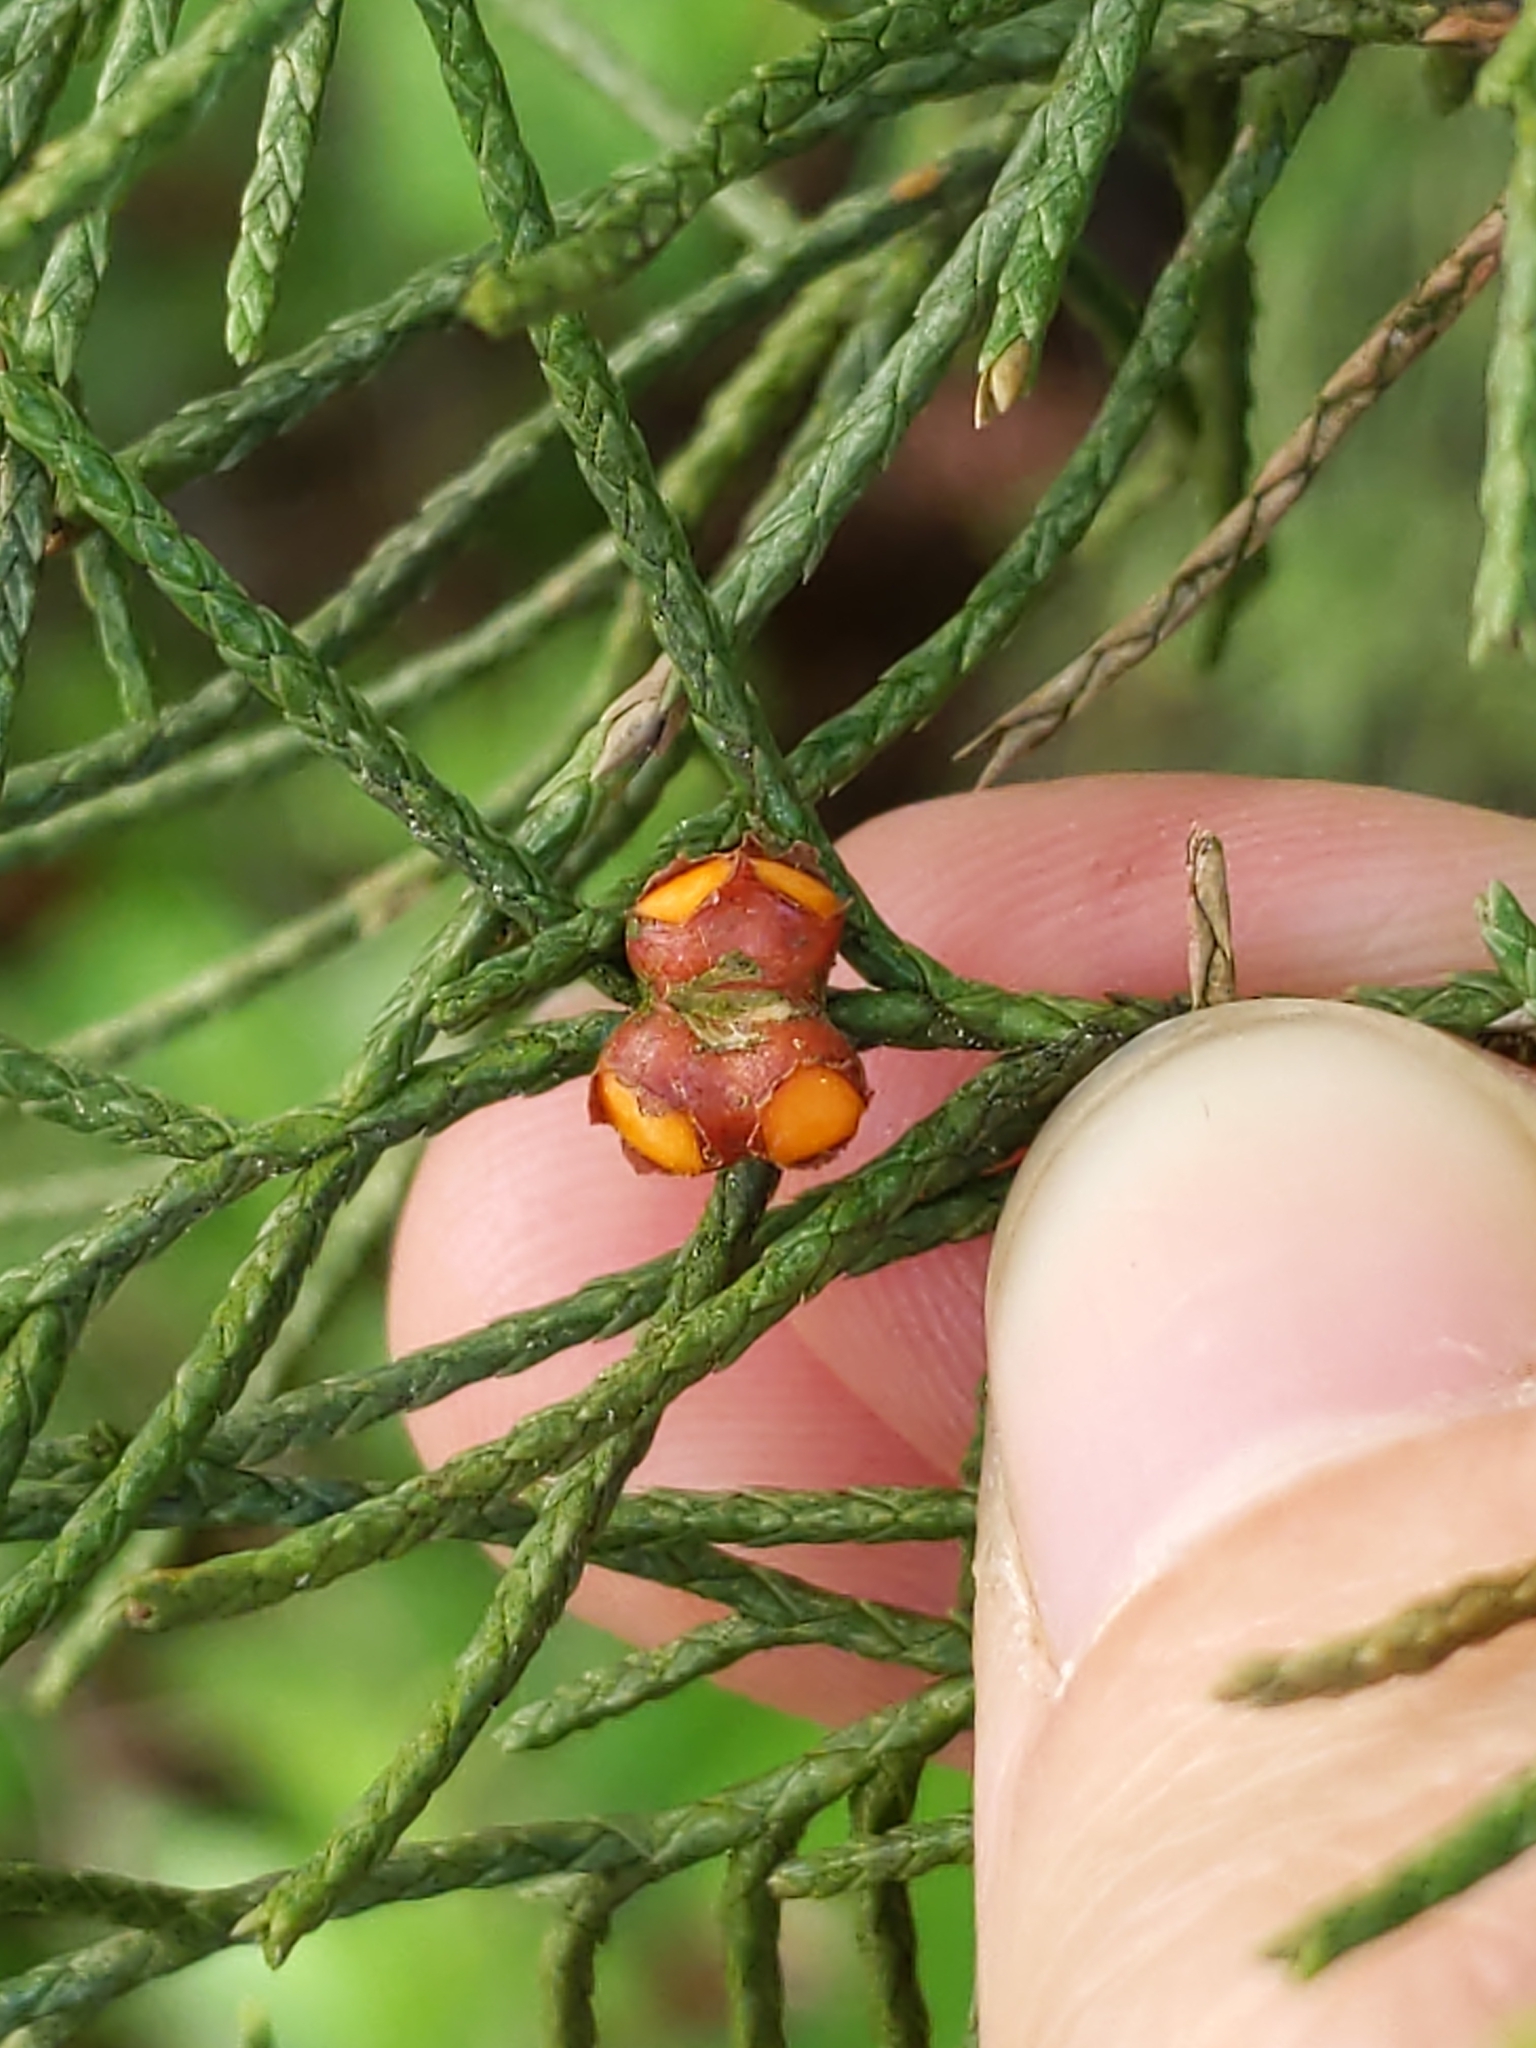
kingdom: Fungi
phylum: Basidiomycota
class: Pucciniomycetes
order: Pucciniales
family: Gymnosporangiaceae
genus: Gymnosporangium
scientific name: Gymnosporangium juniperi-virginianae
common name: Juniper-apple rust
